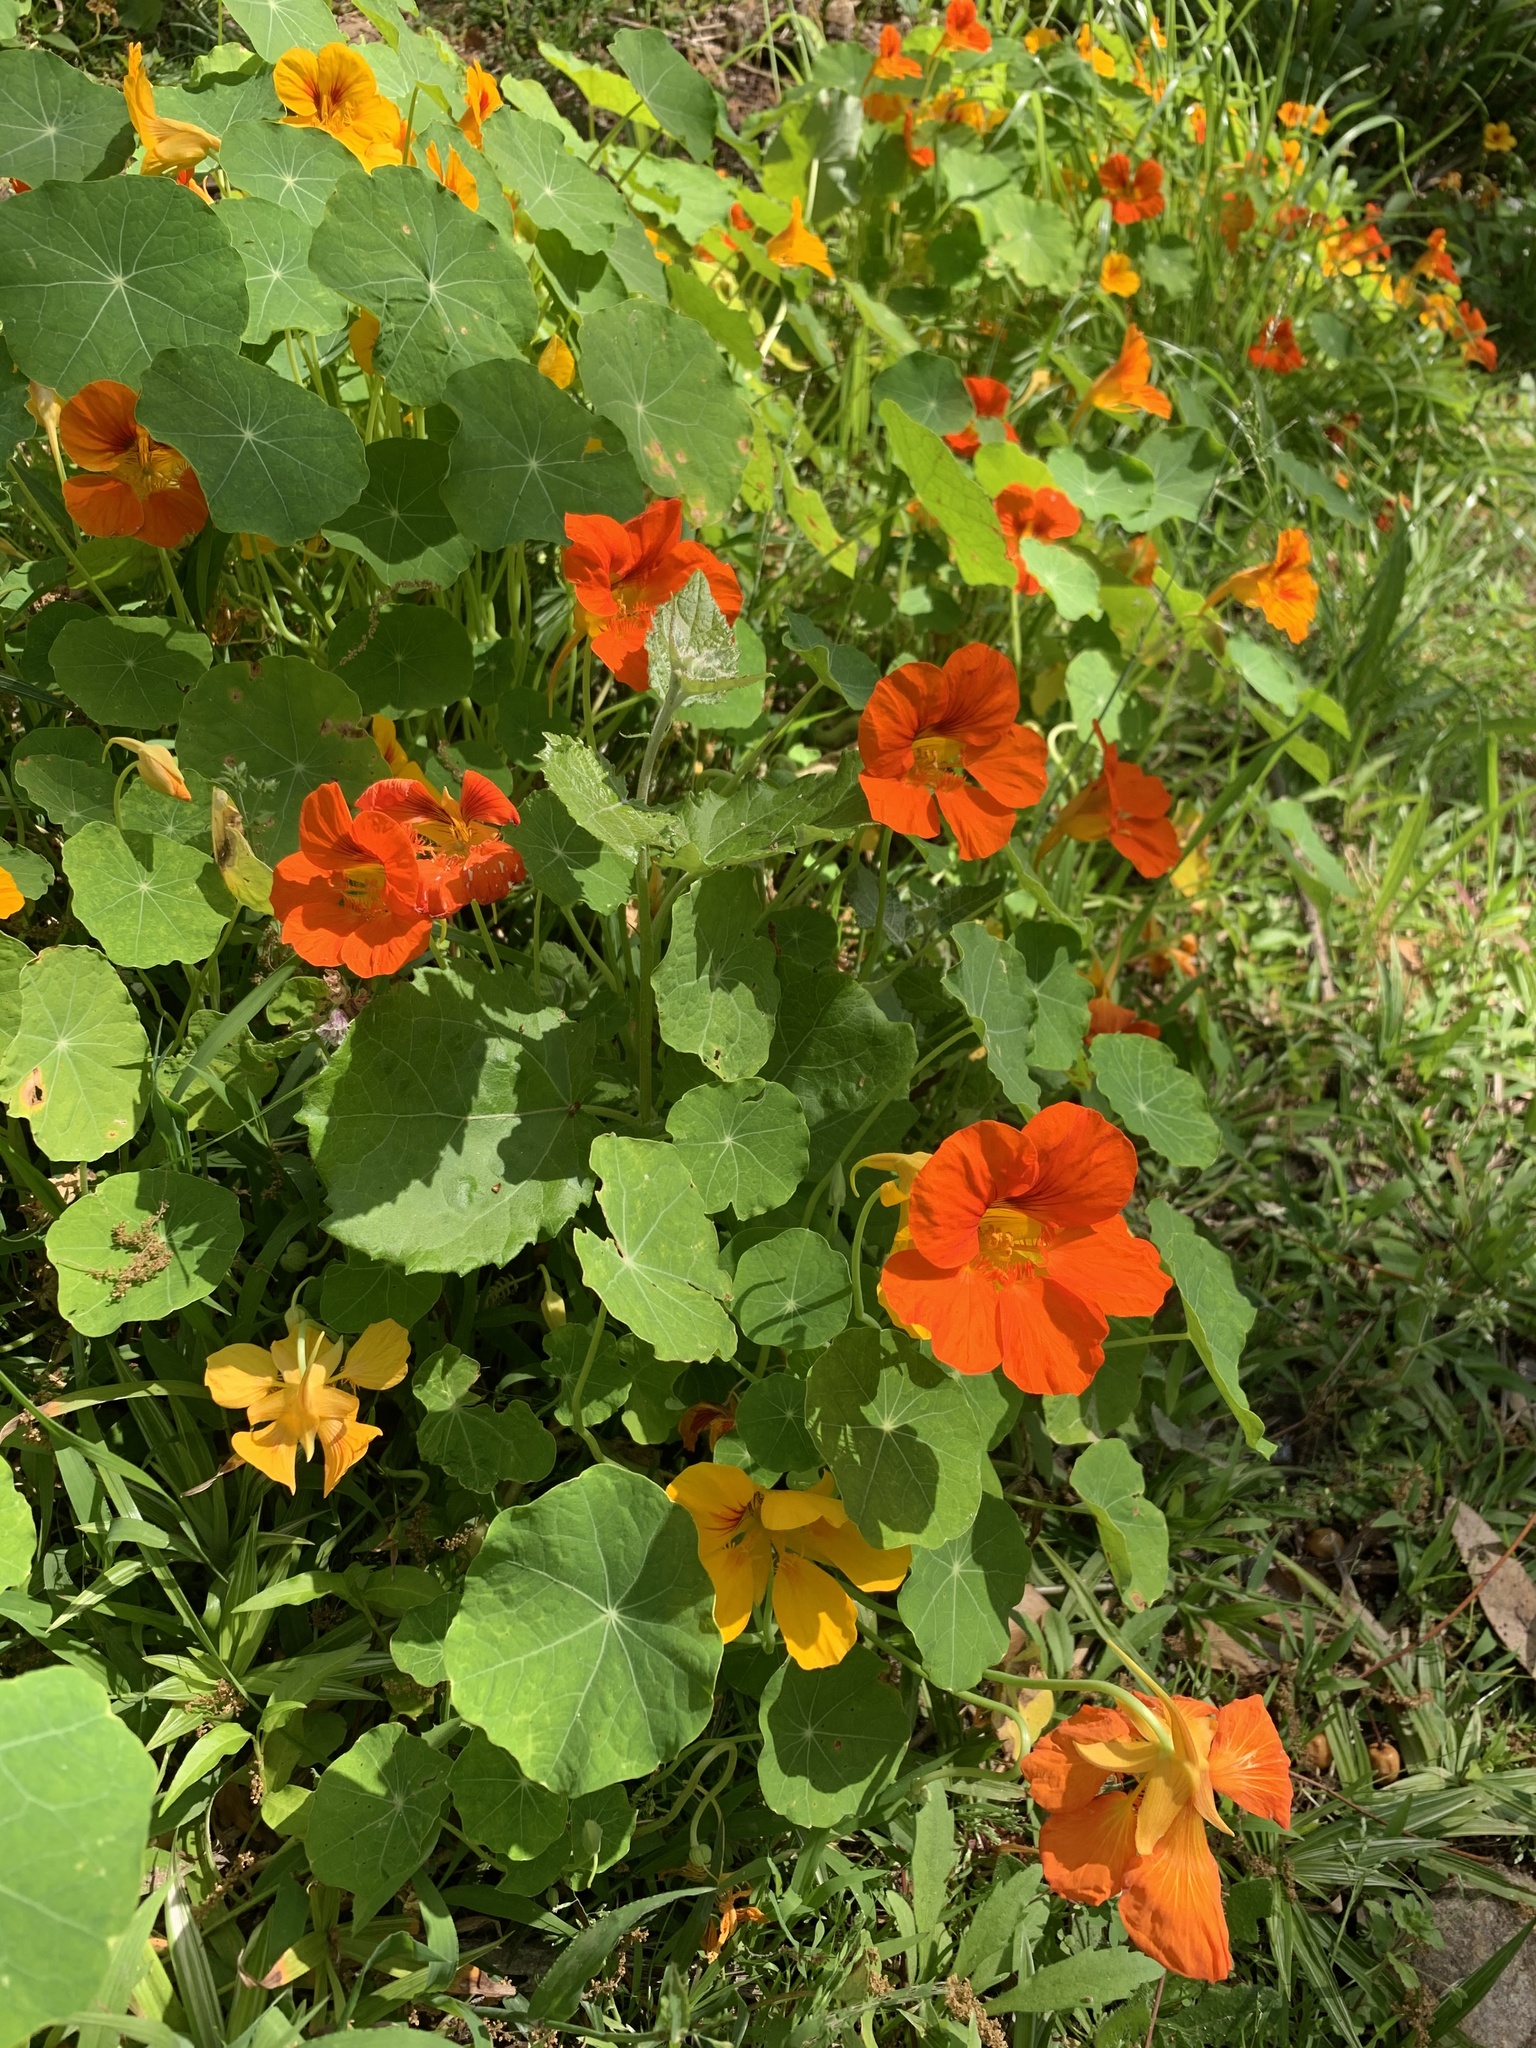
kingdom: Plantae
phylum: Tracheophyta
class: Magnoliopsida
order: Brassicales
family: Tropaeolaceae
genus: Tropaeolum
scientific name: Tropaeolum majus
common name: Nasturtium
